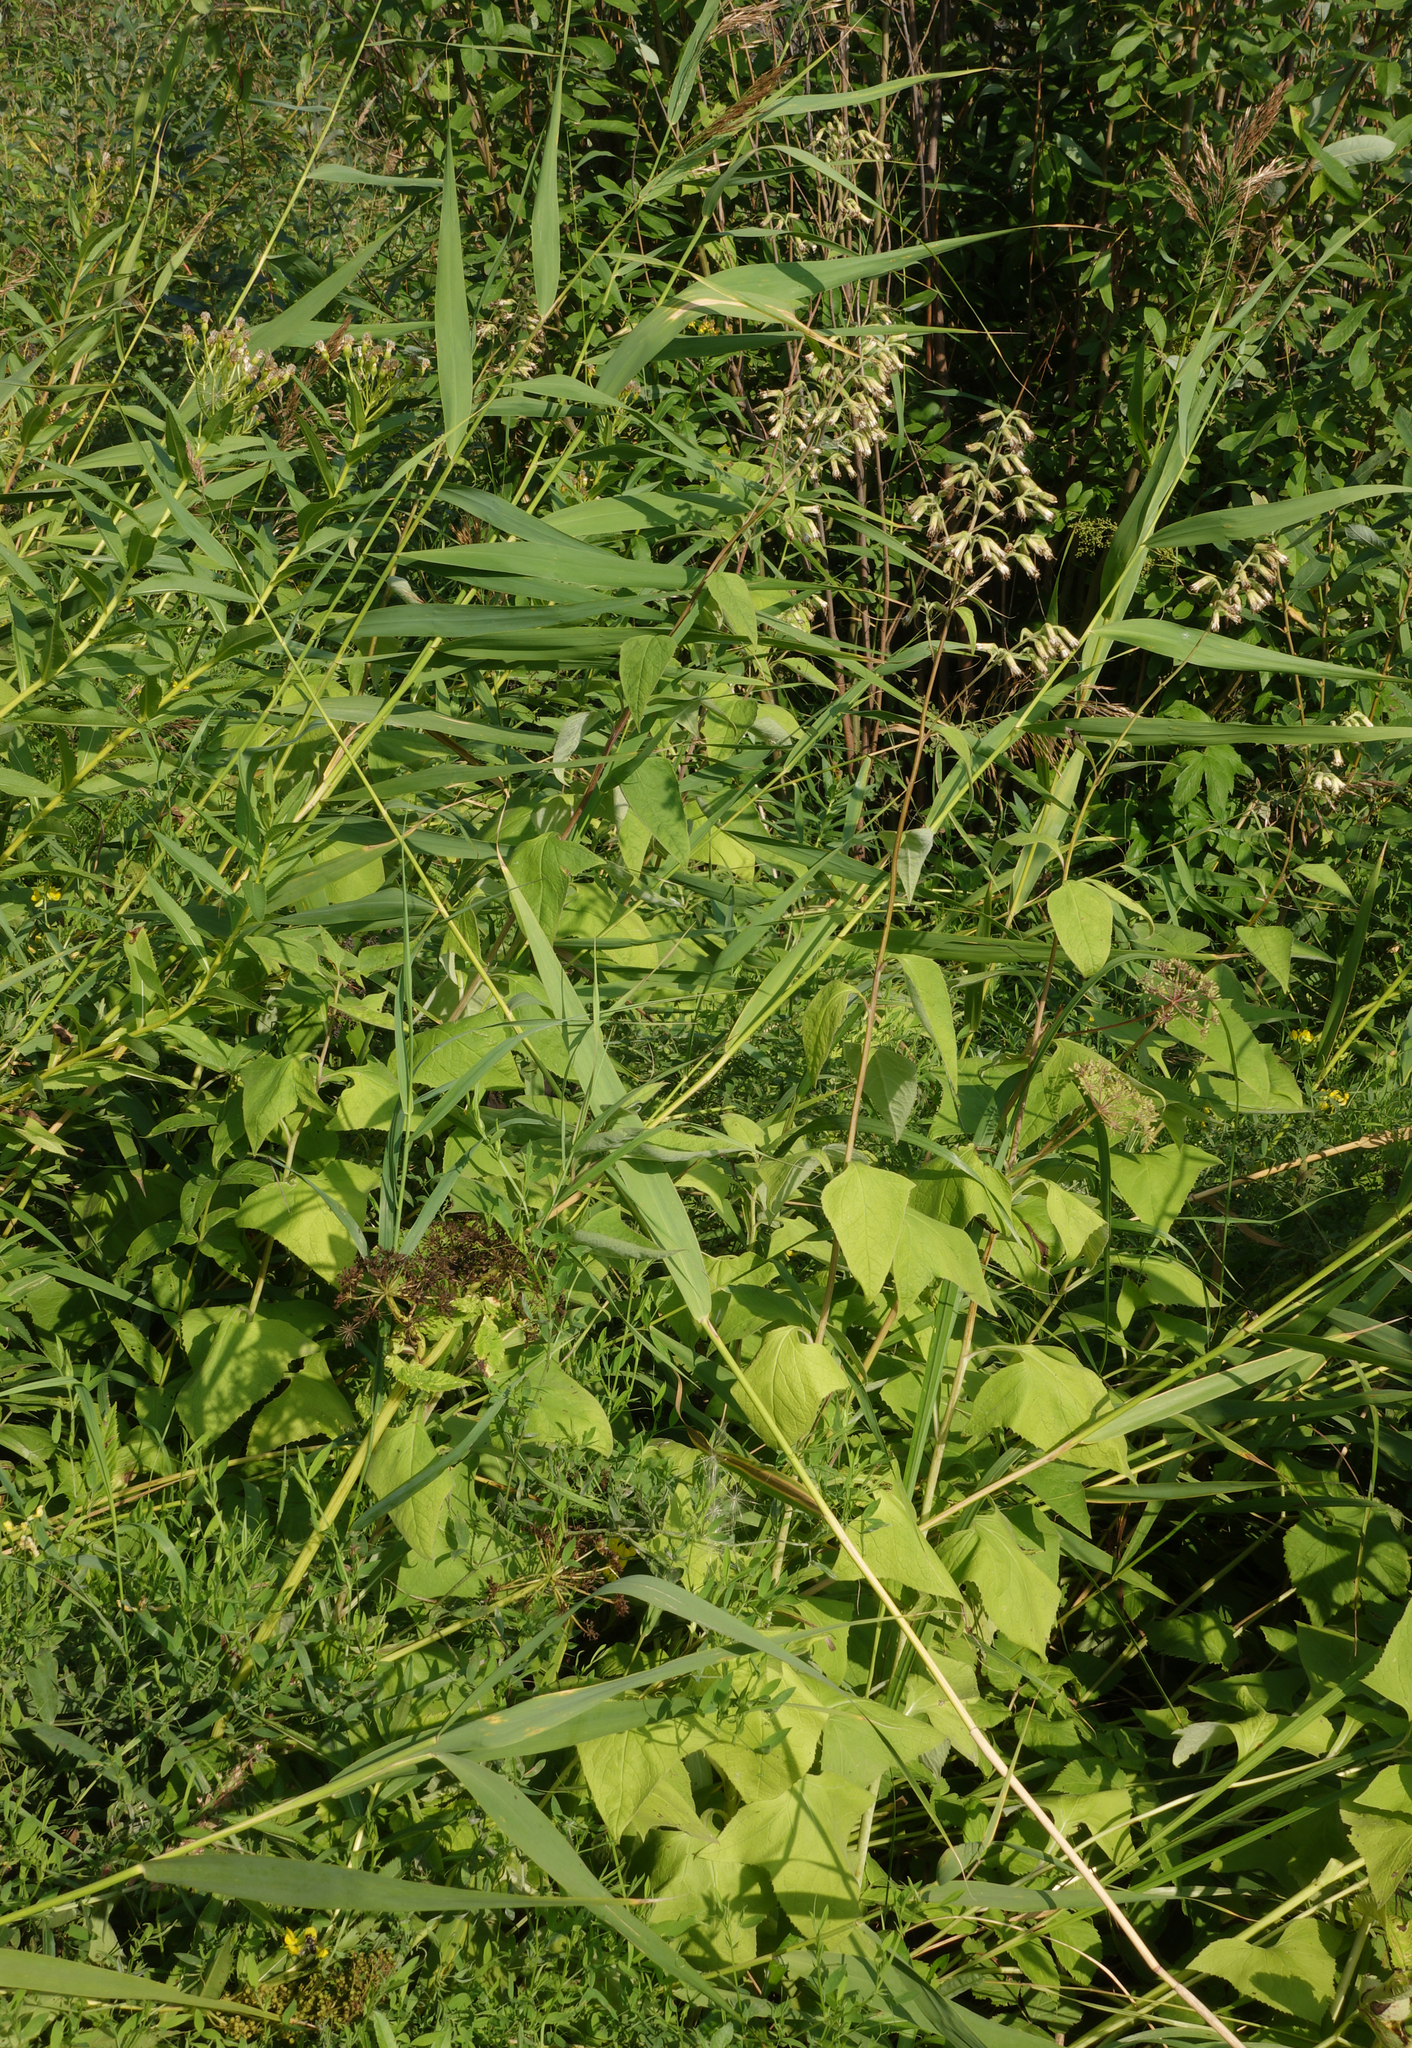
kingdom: Plantae
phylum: Tracheophyta
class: Magnoliopsida
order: Asterales
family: Asteraceae
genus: Parasenecio
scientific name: Parasenecio hastatus
